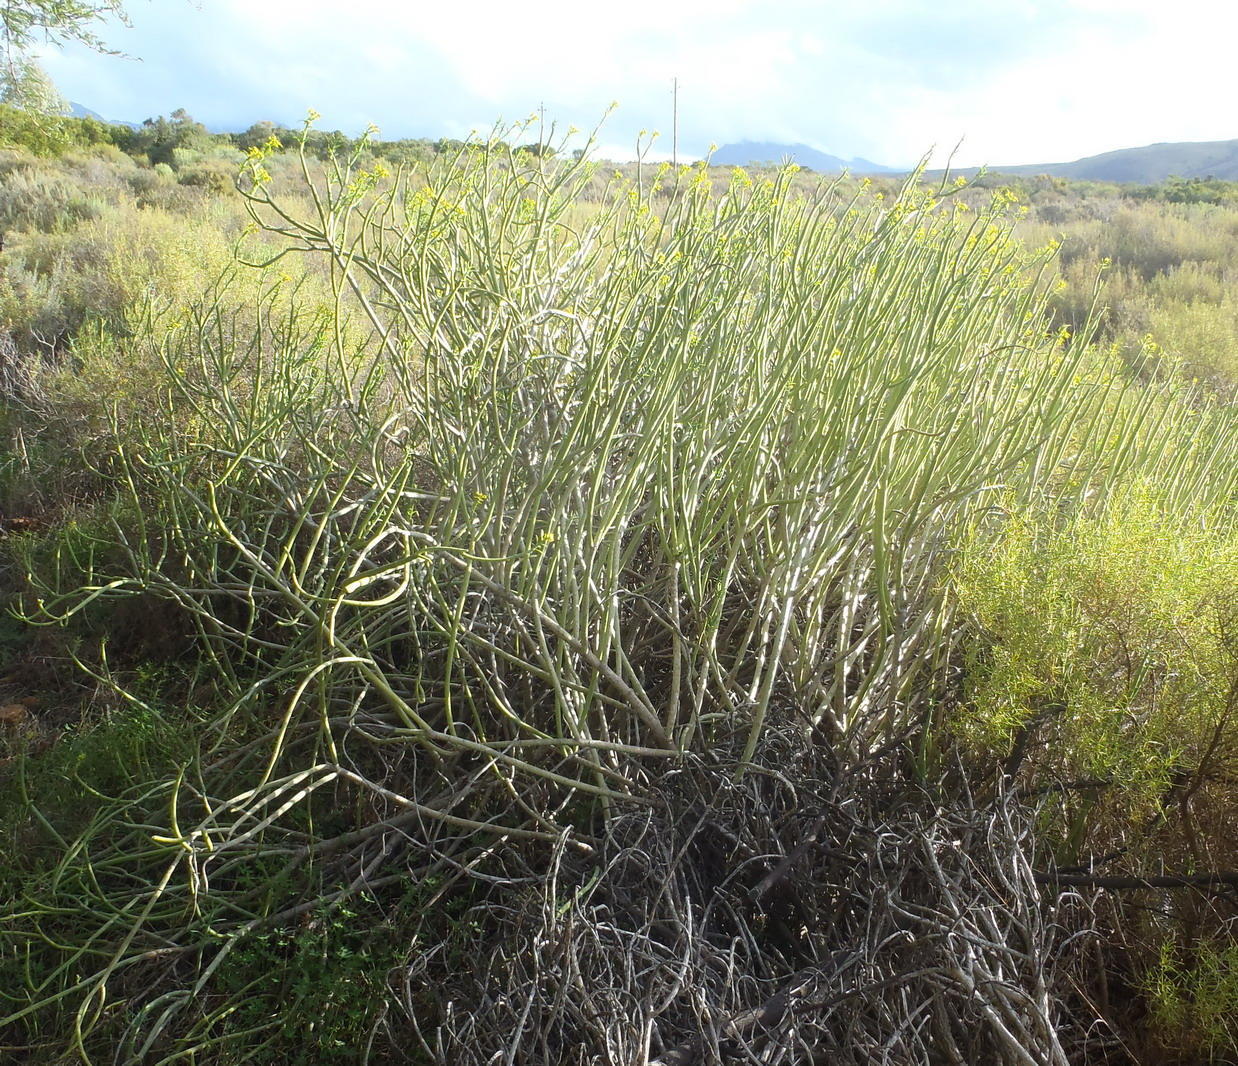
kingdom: Plantae
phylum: Tracheophyta
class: Magnoliopsida
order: Malpighiales
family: Euphorbiaceae
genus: Euphorbia
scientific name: Euphorbia mauritanica
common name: Jackal's-food
